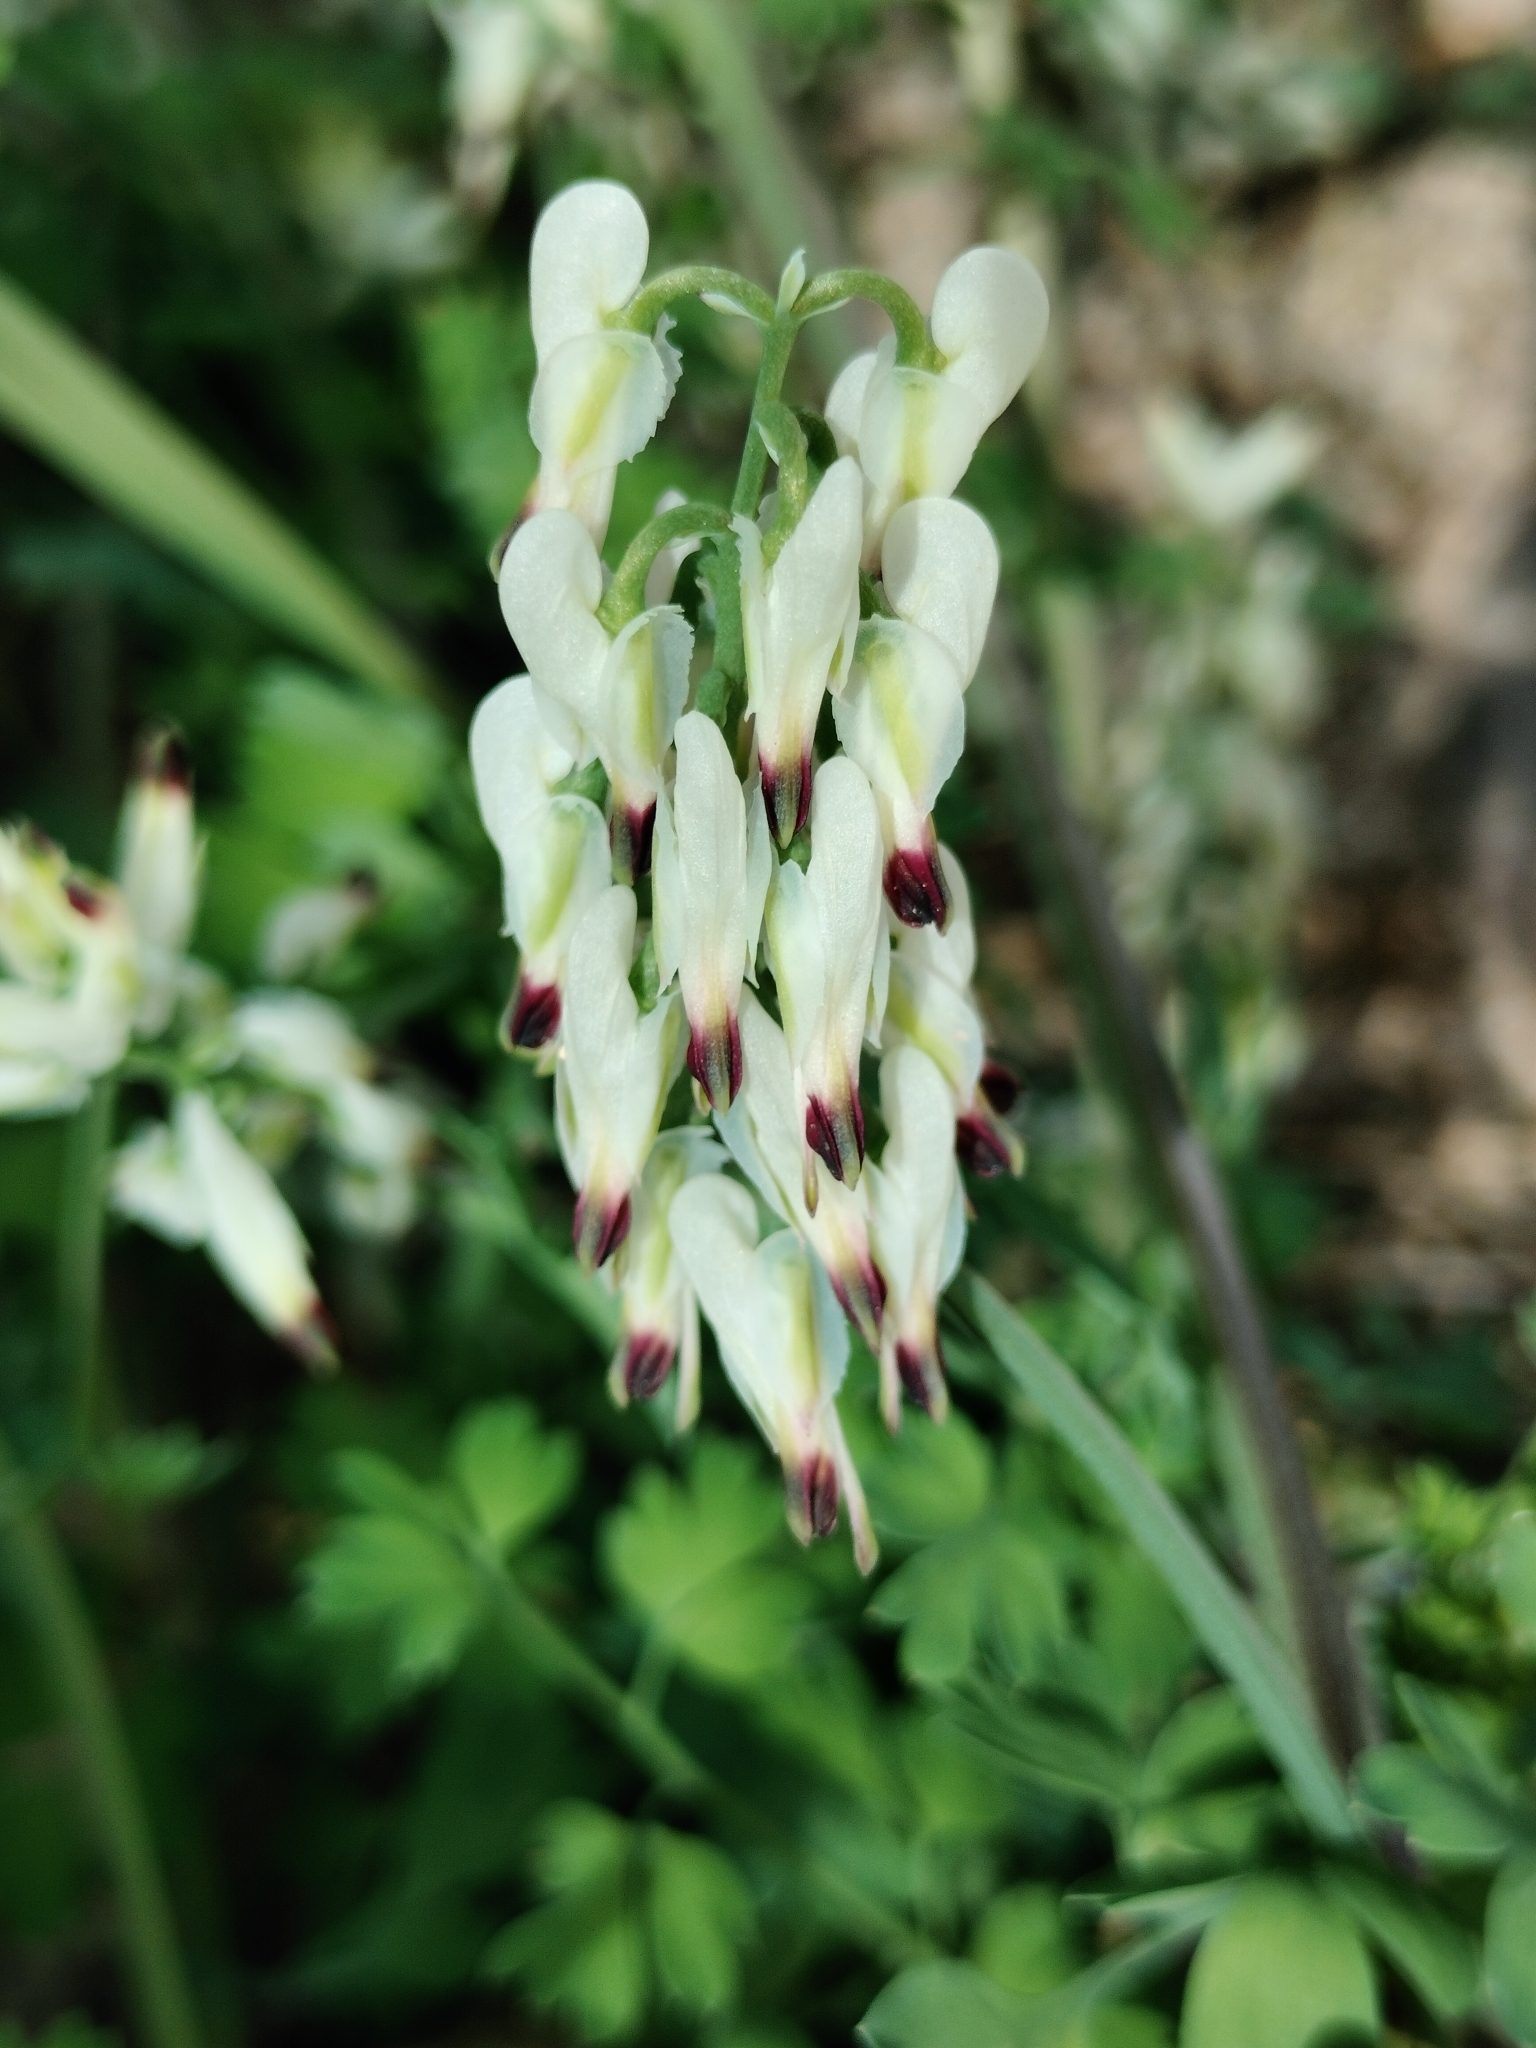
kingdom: Plantae
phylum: Tracheophyta
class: Magnoliopsida
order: Ranunculales
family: Papaveraceae
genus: Fumaria
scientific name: Fumaria capreolata
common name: White ramping-fumitory
